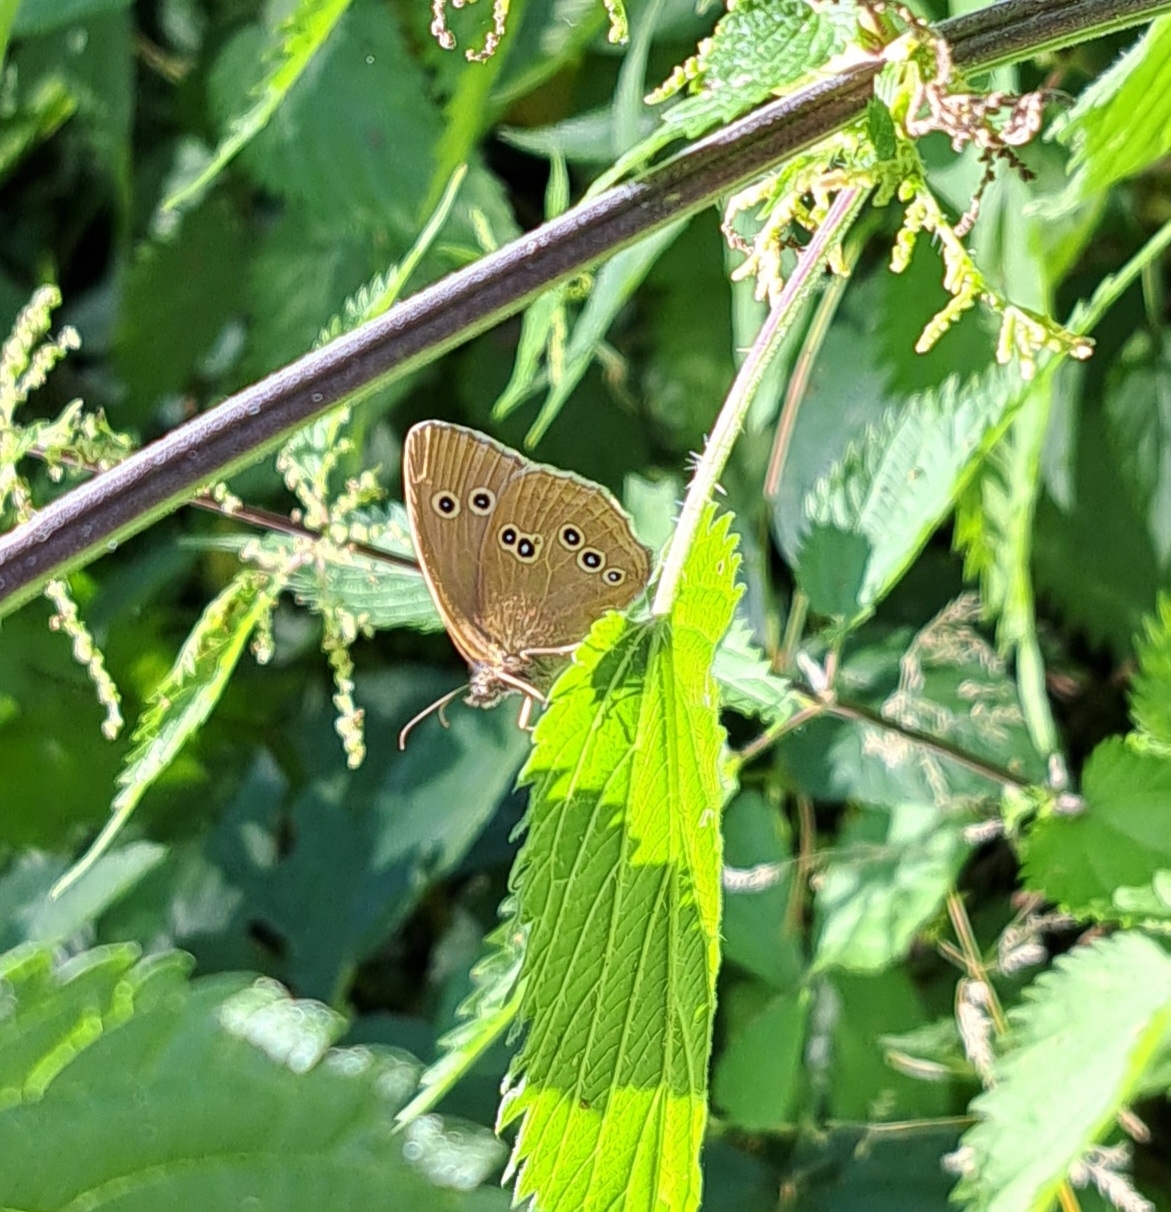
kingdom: Animalia
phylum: Arthropoda
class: Insecta
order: Lepidoptera
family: Nymphalidae
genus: Aphantopus
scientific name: Aphantopus hyperantus
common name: Ringlet
